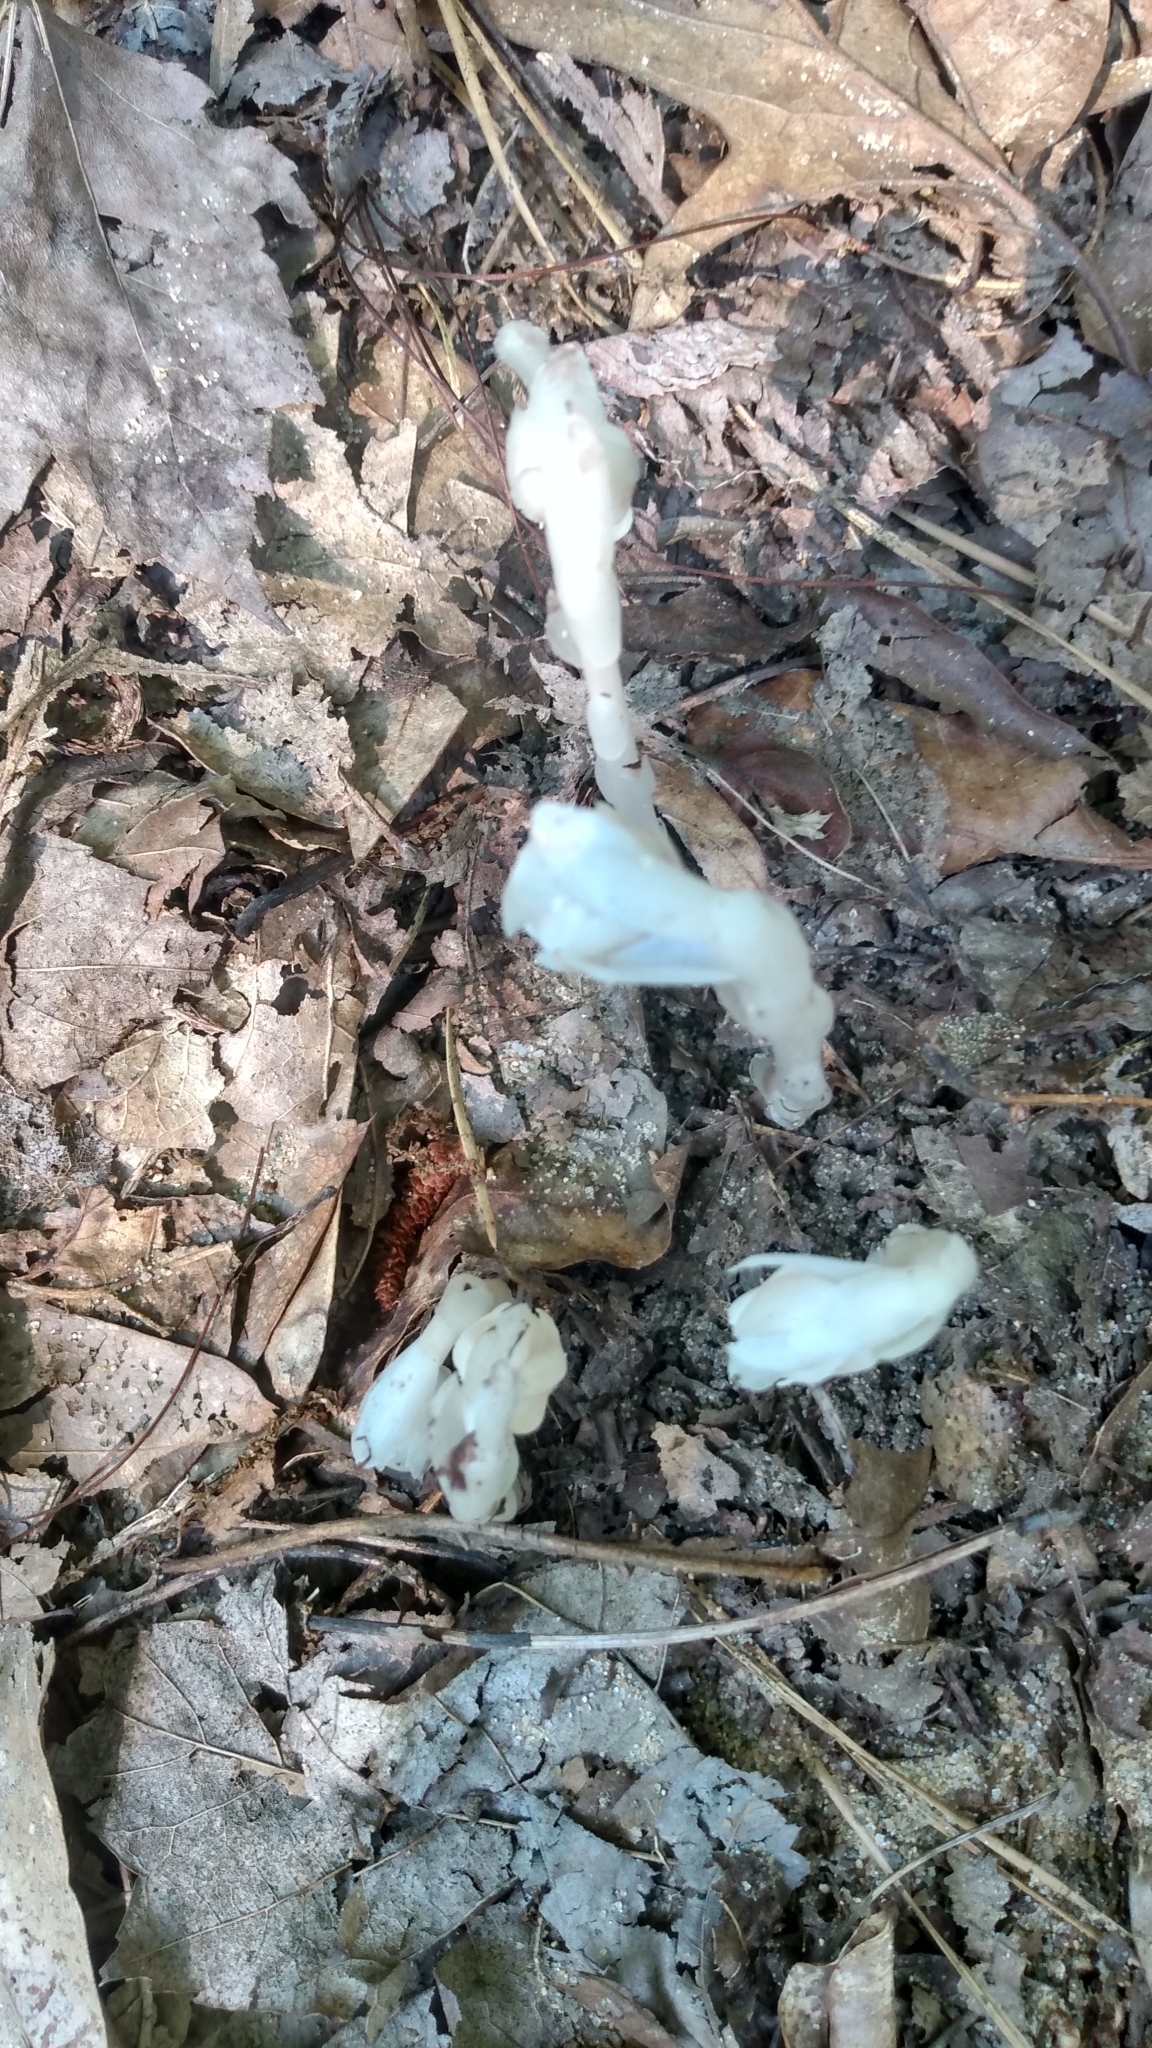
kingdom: Plantae
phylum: Tracheophyta
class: Magnoliopsida
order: Ericales
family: Ericaceae
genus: Monotropa
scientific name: Monotropa uniflora
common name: Convulsion root
